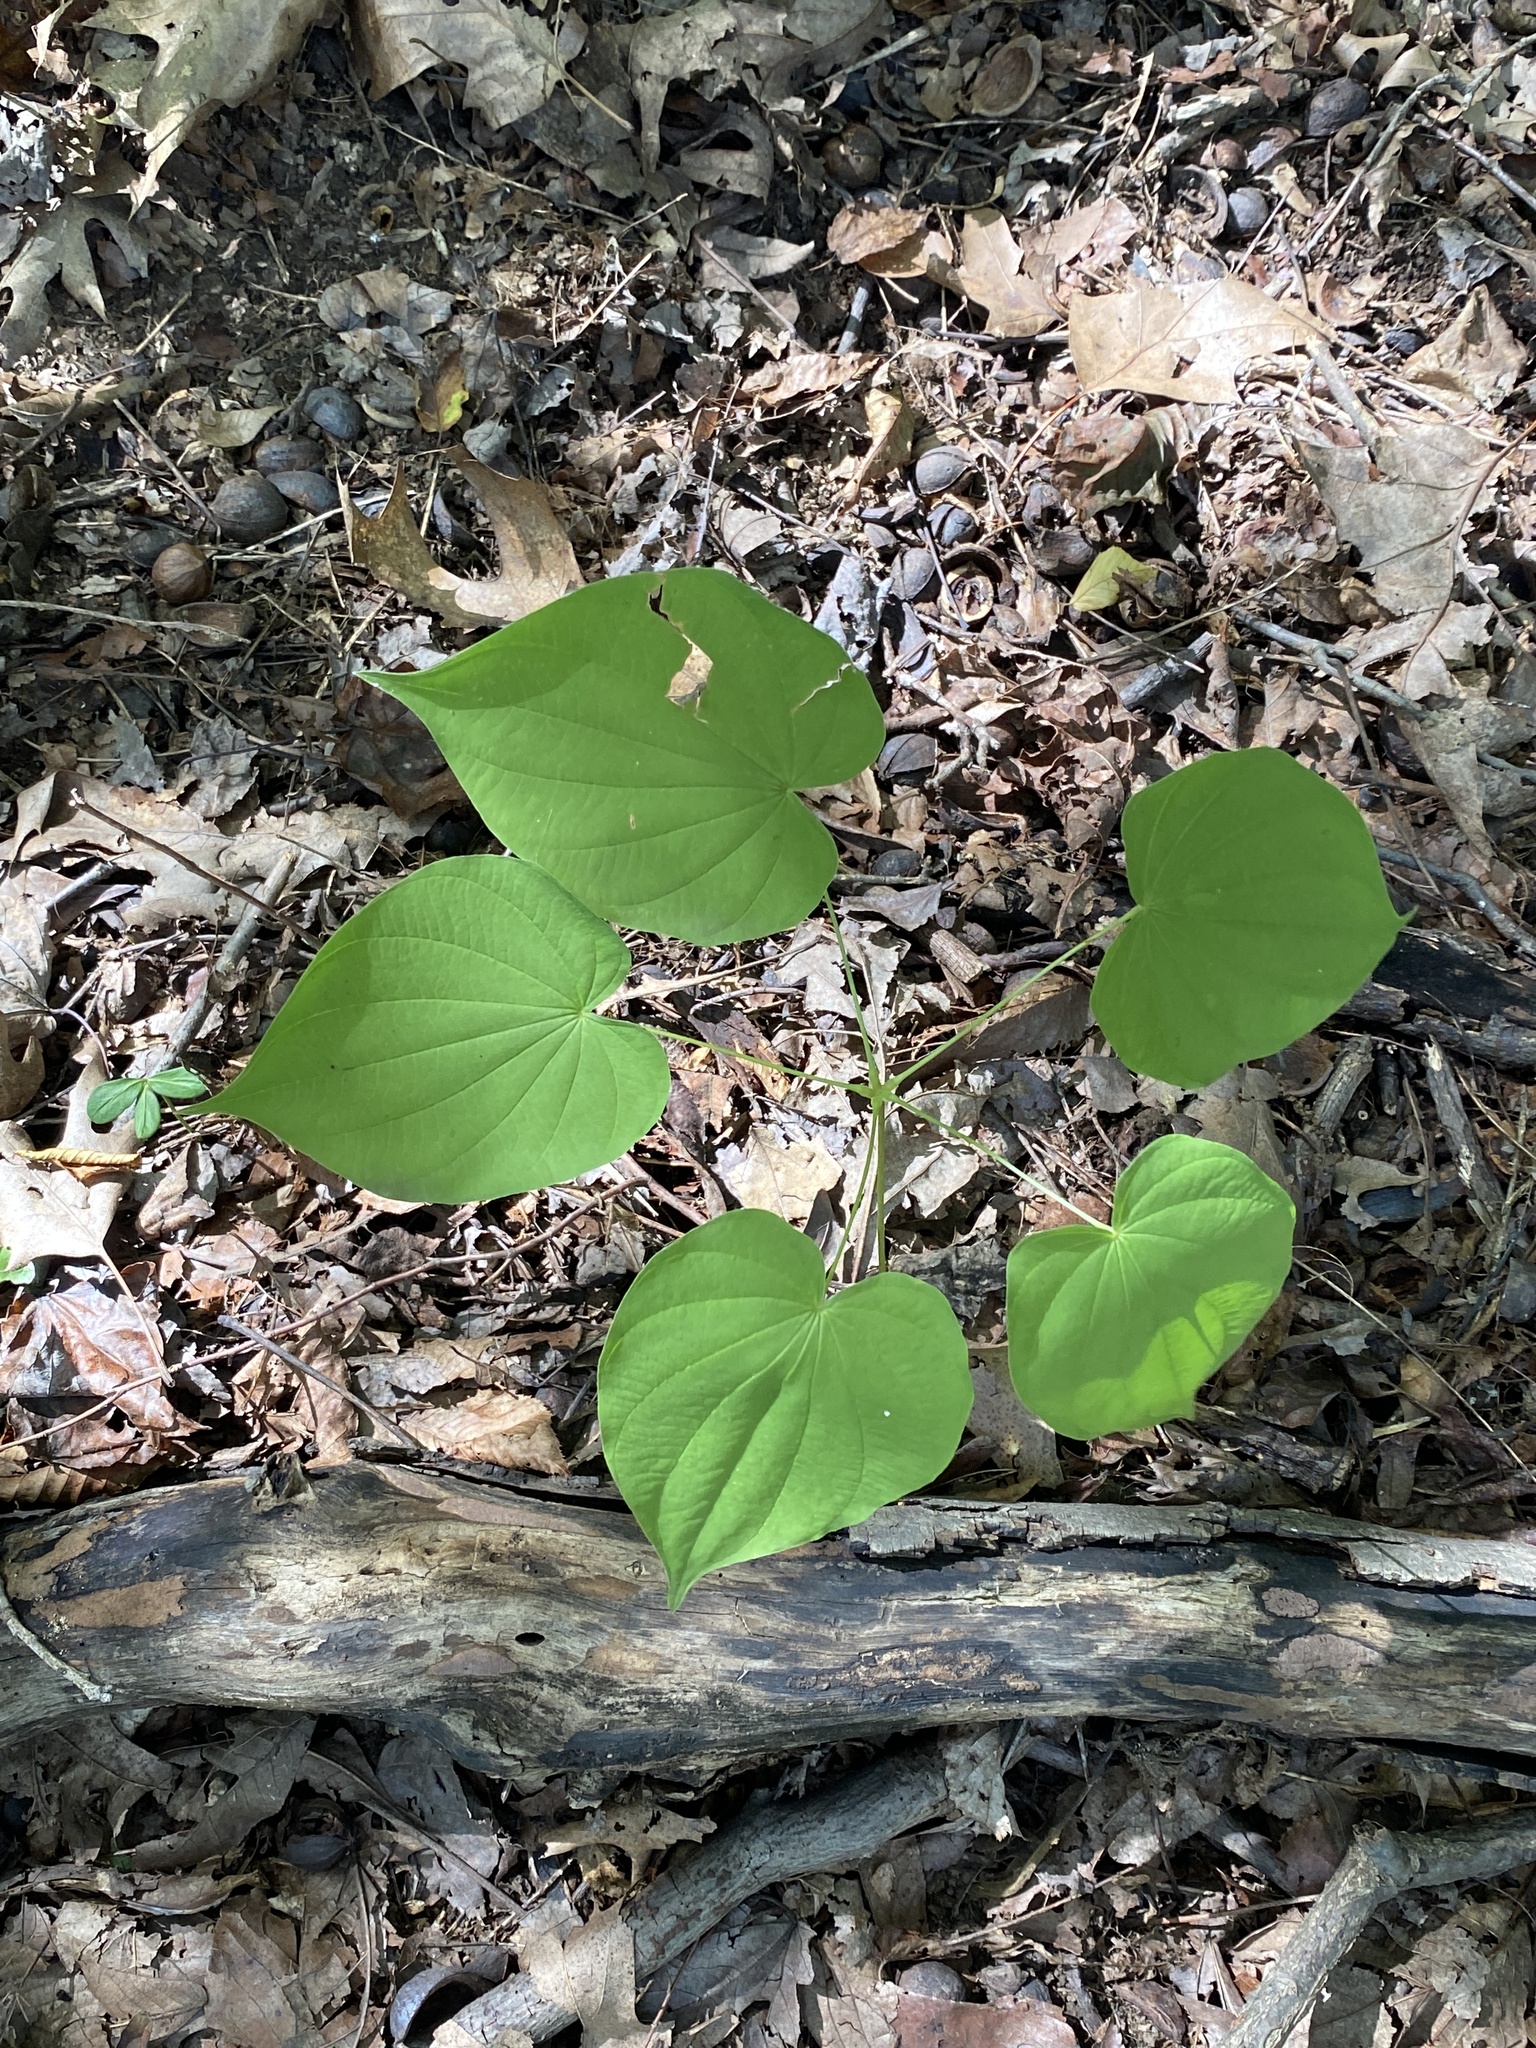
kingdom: Plantae
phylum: Tracheophyta
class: Liliopsida
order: Dioscoreales
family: Dioscoreaceae
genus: Dioscorea
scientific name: Dioscorea villosa
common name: Wild yam
